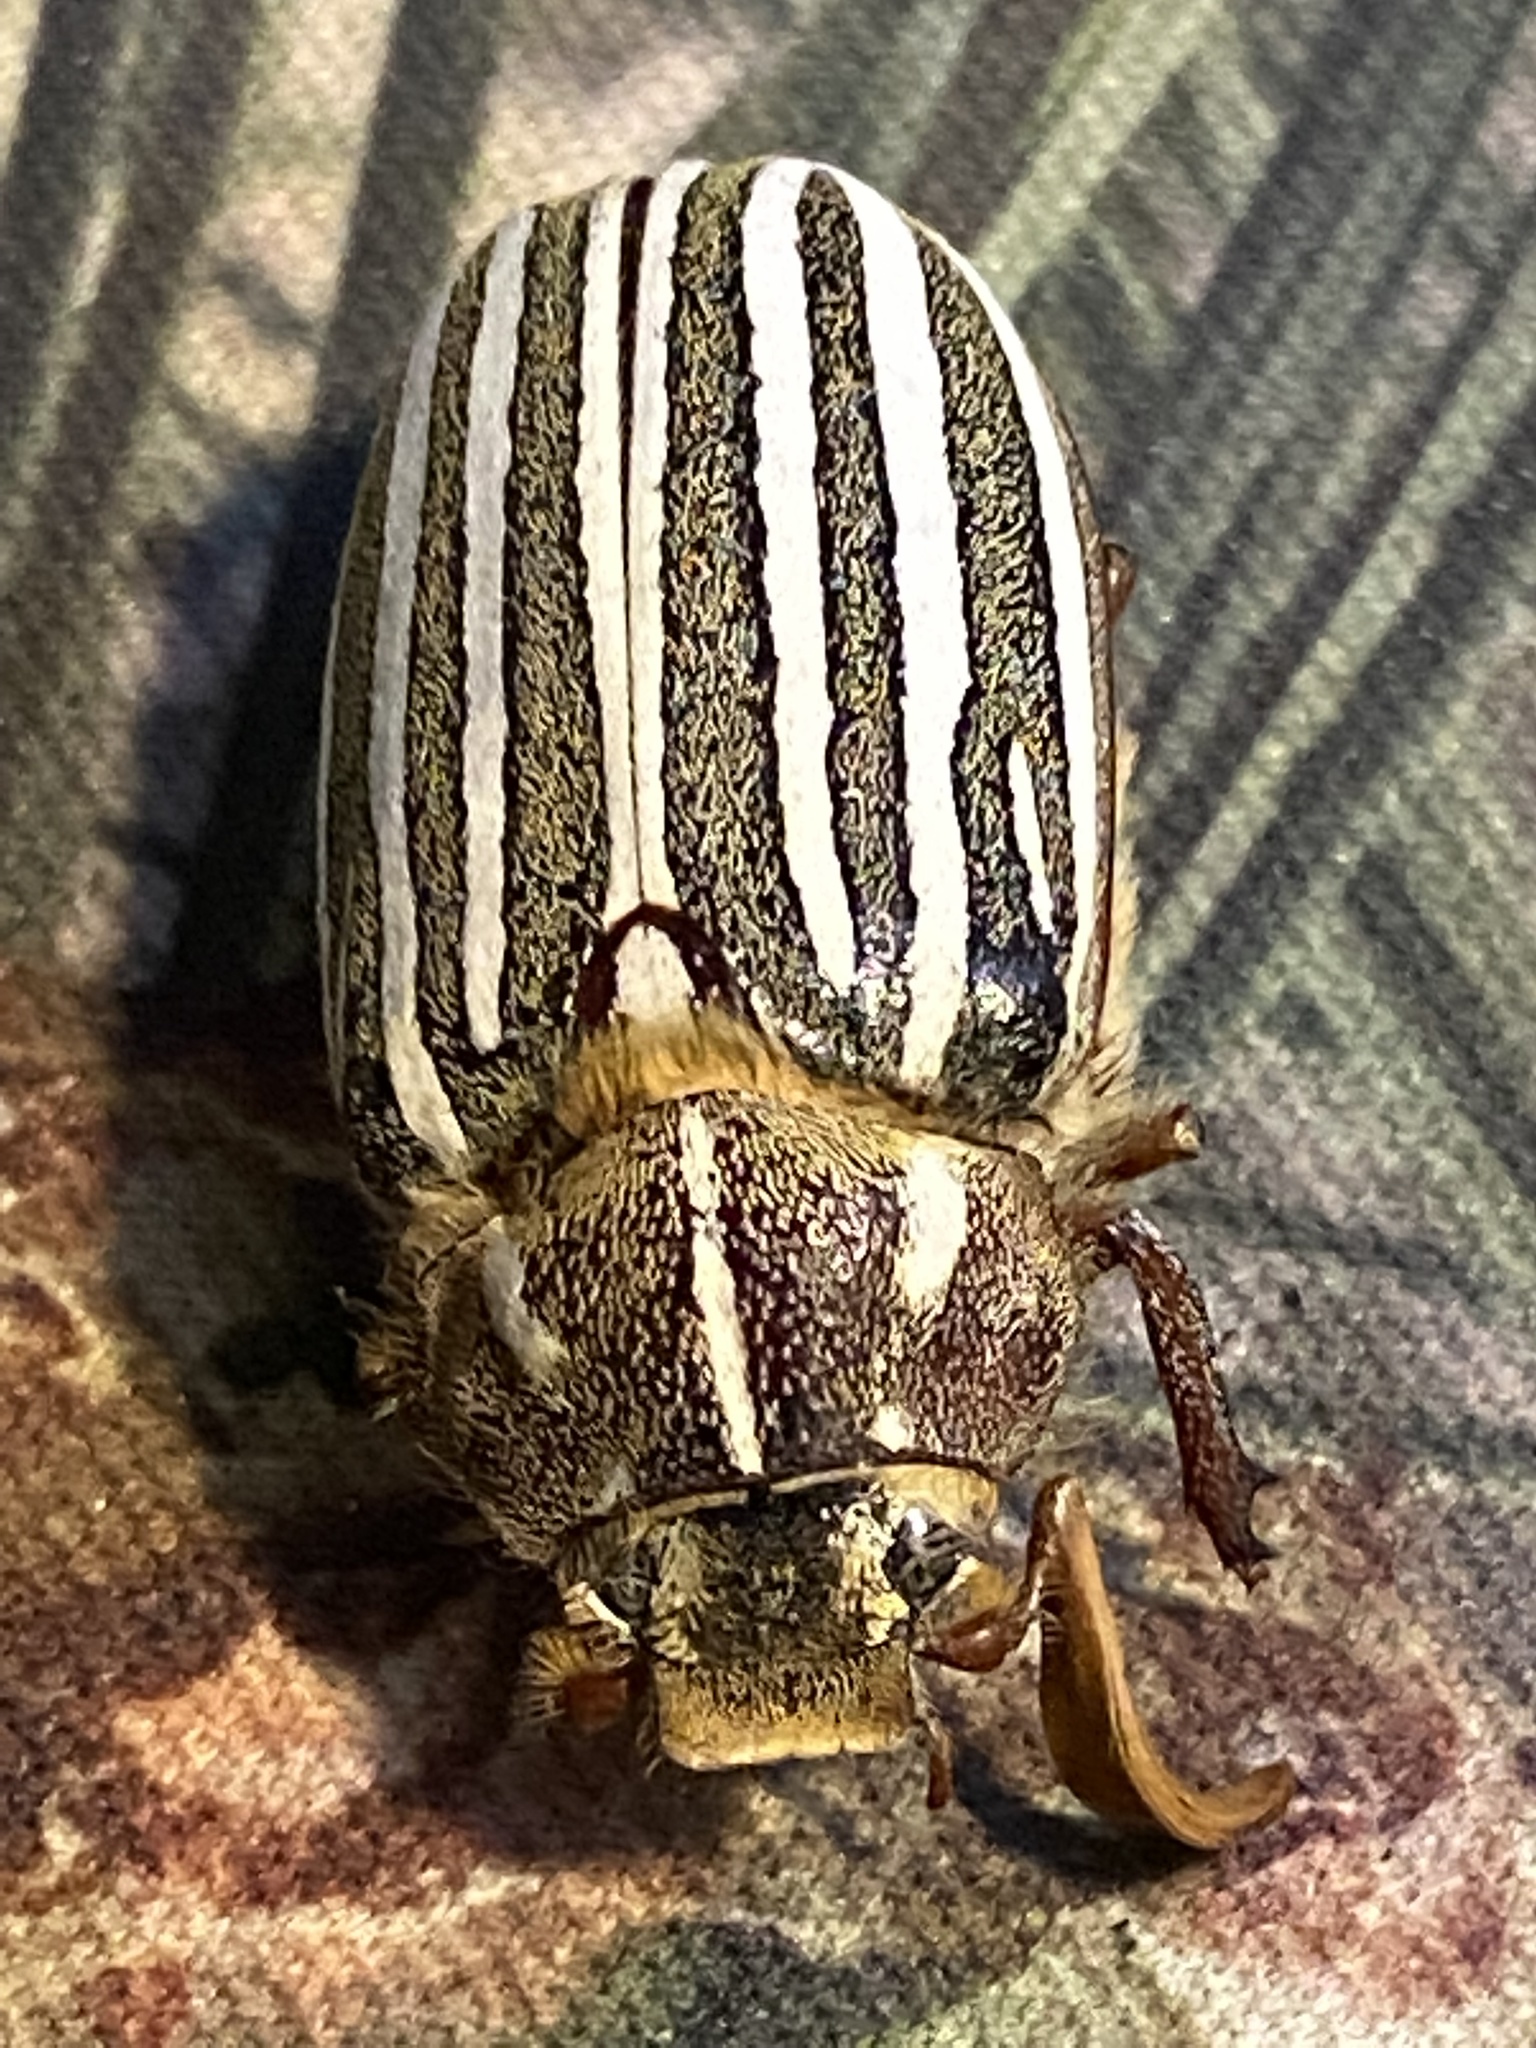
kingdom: Animalia
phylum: Arthropoda
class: Insecta
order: Coleoptera
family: Scarabaeidae
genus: Polyphylla
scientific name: Polyphylla decemlineata
